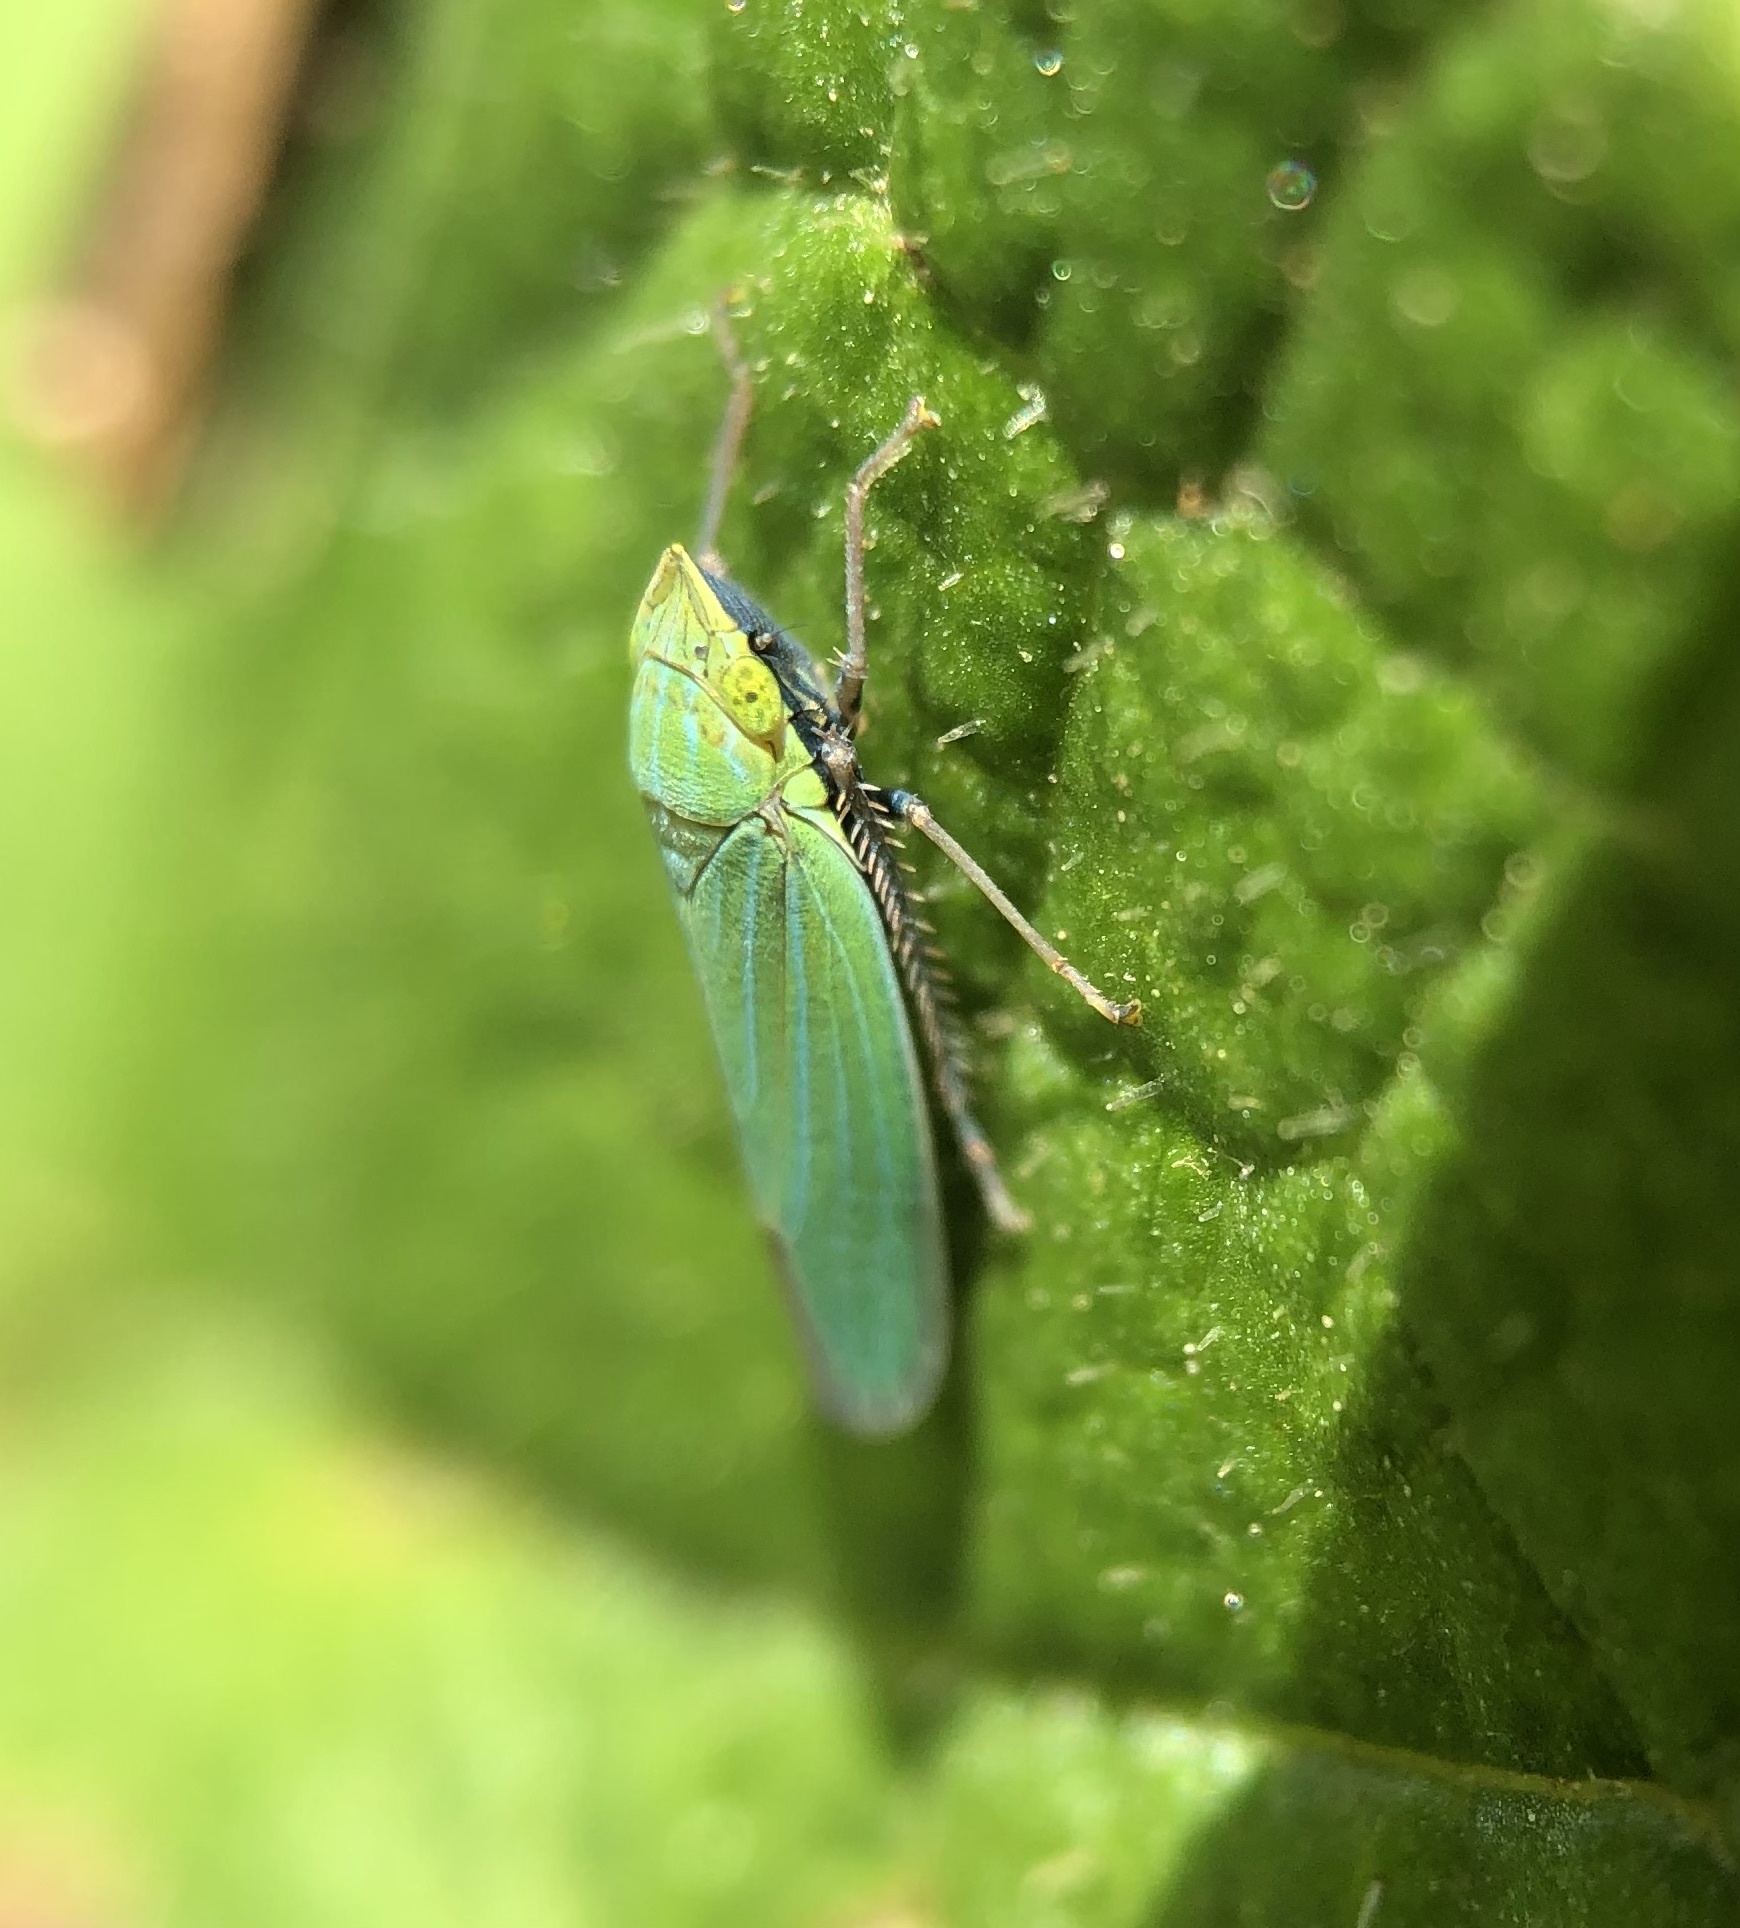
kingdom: Animalia
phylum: Arthropoda
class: Insecta
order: Hemiptera
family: Cicadellidae
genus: Draeculacephala
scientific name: Draeculacephala robinsoni
